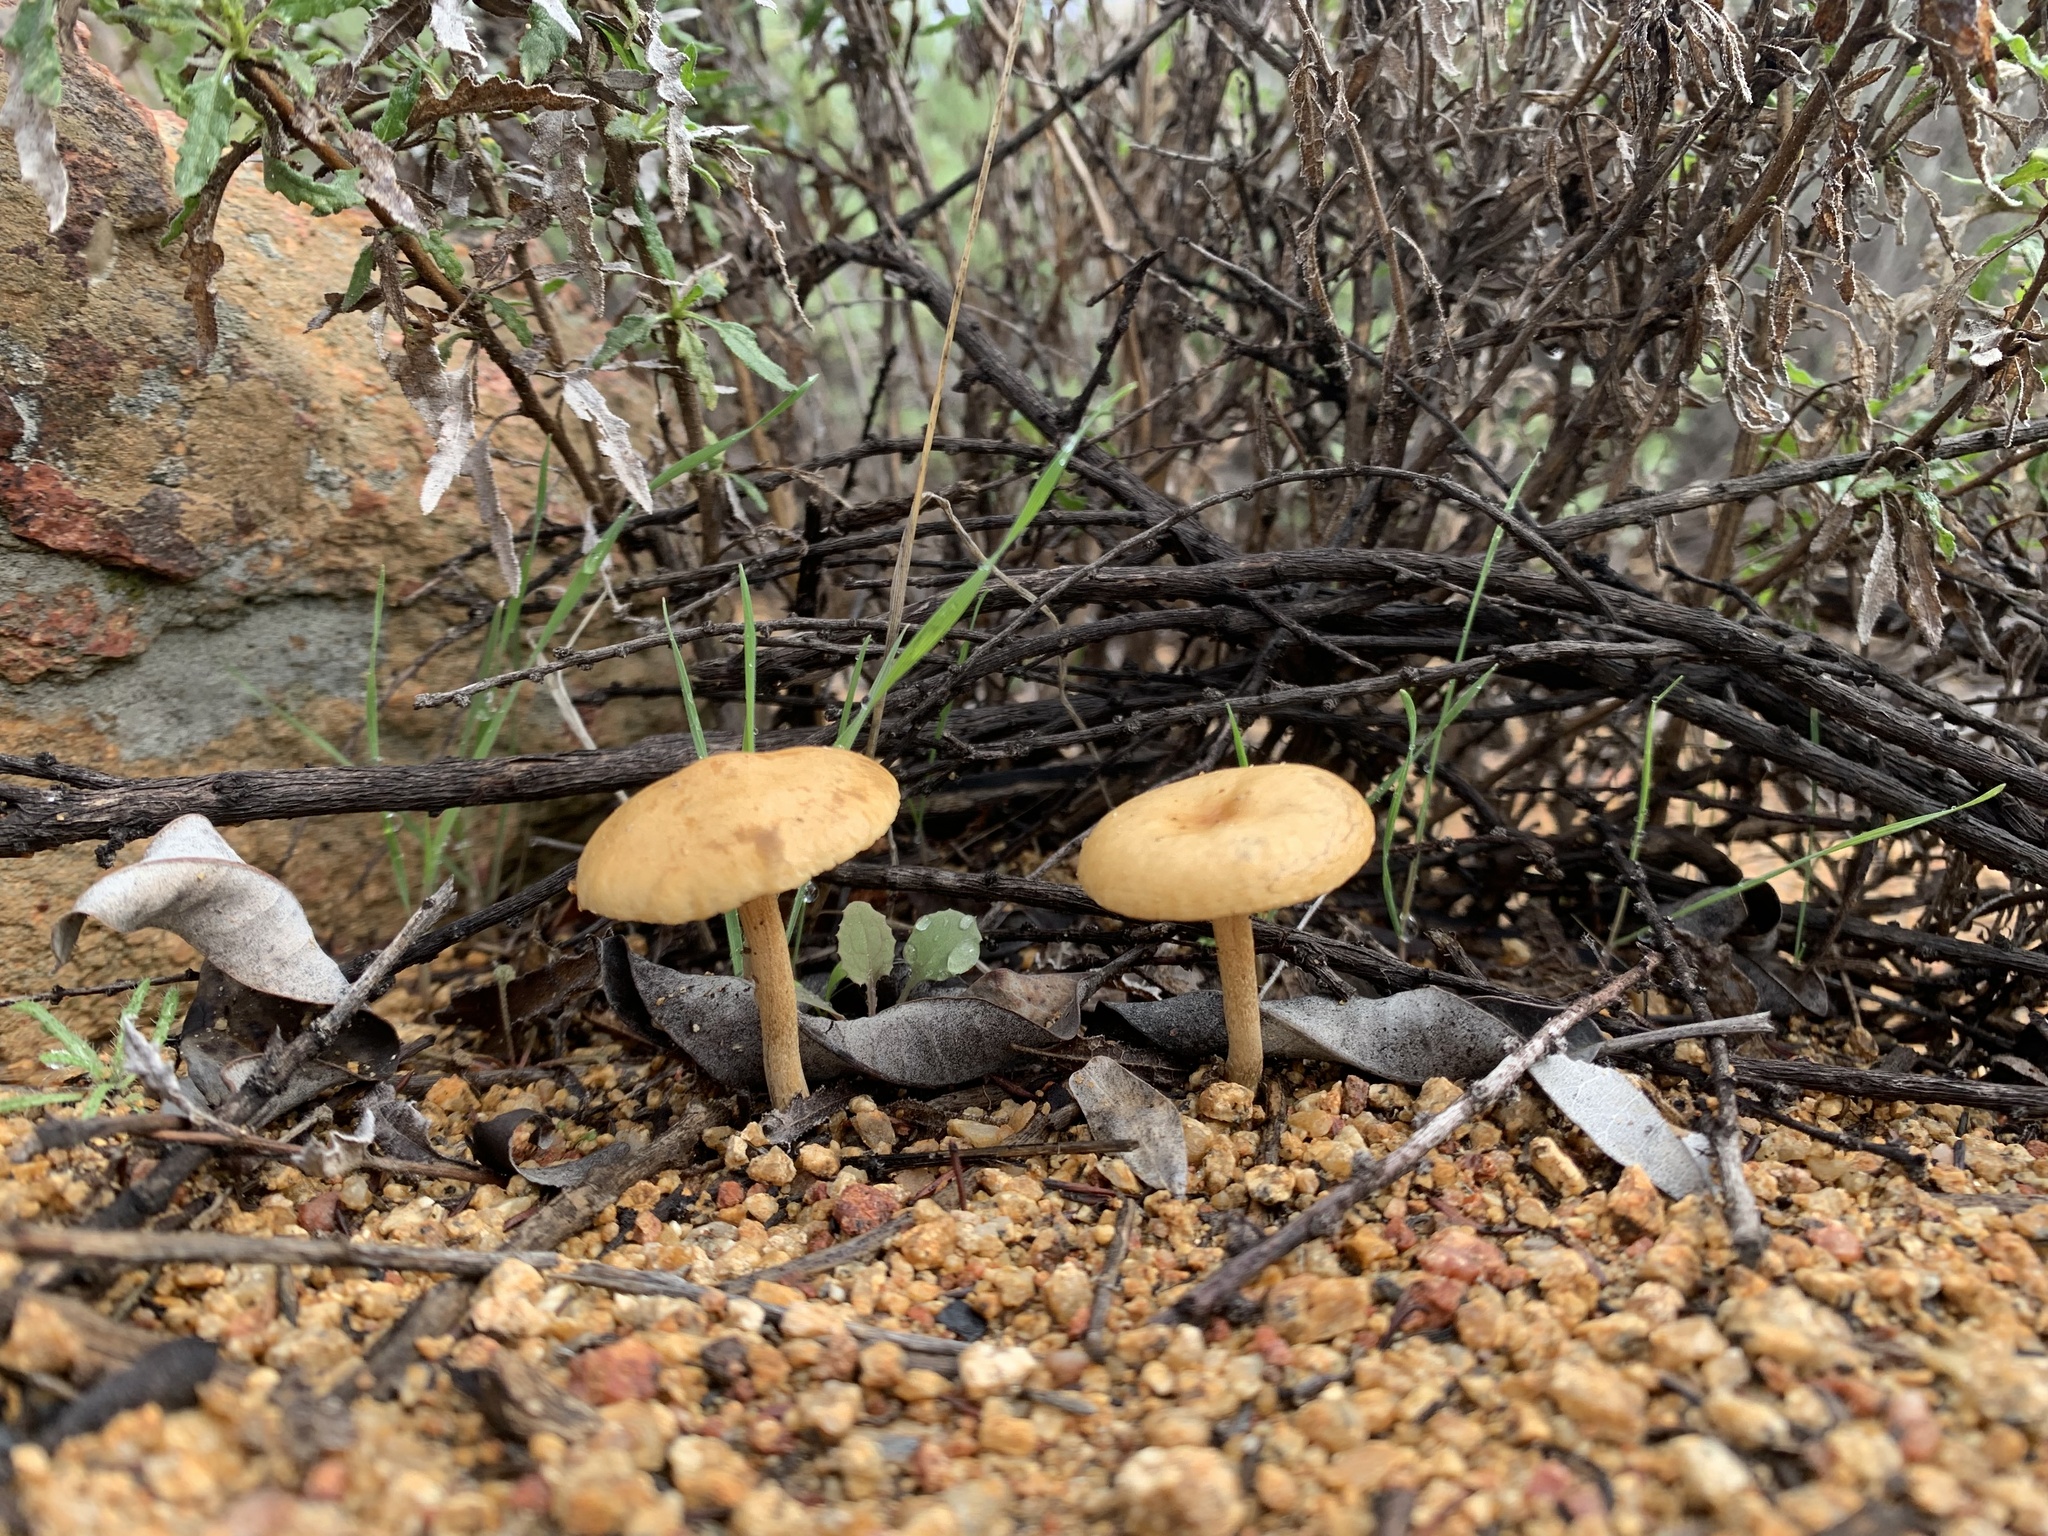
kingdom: Fungi
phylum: Basidiomycota
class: Agaricomycetes
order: Agaricales
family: Strophariaceae
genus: Agrocybe
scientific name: Agrocybe pediades
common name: Common fieldcap
